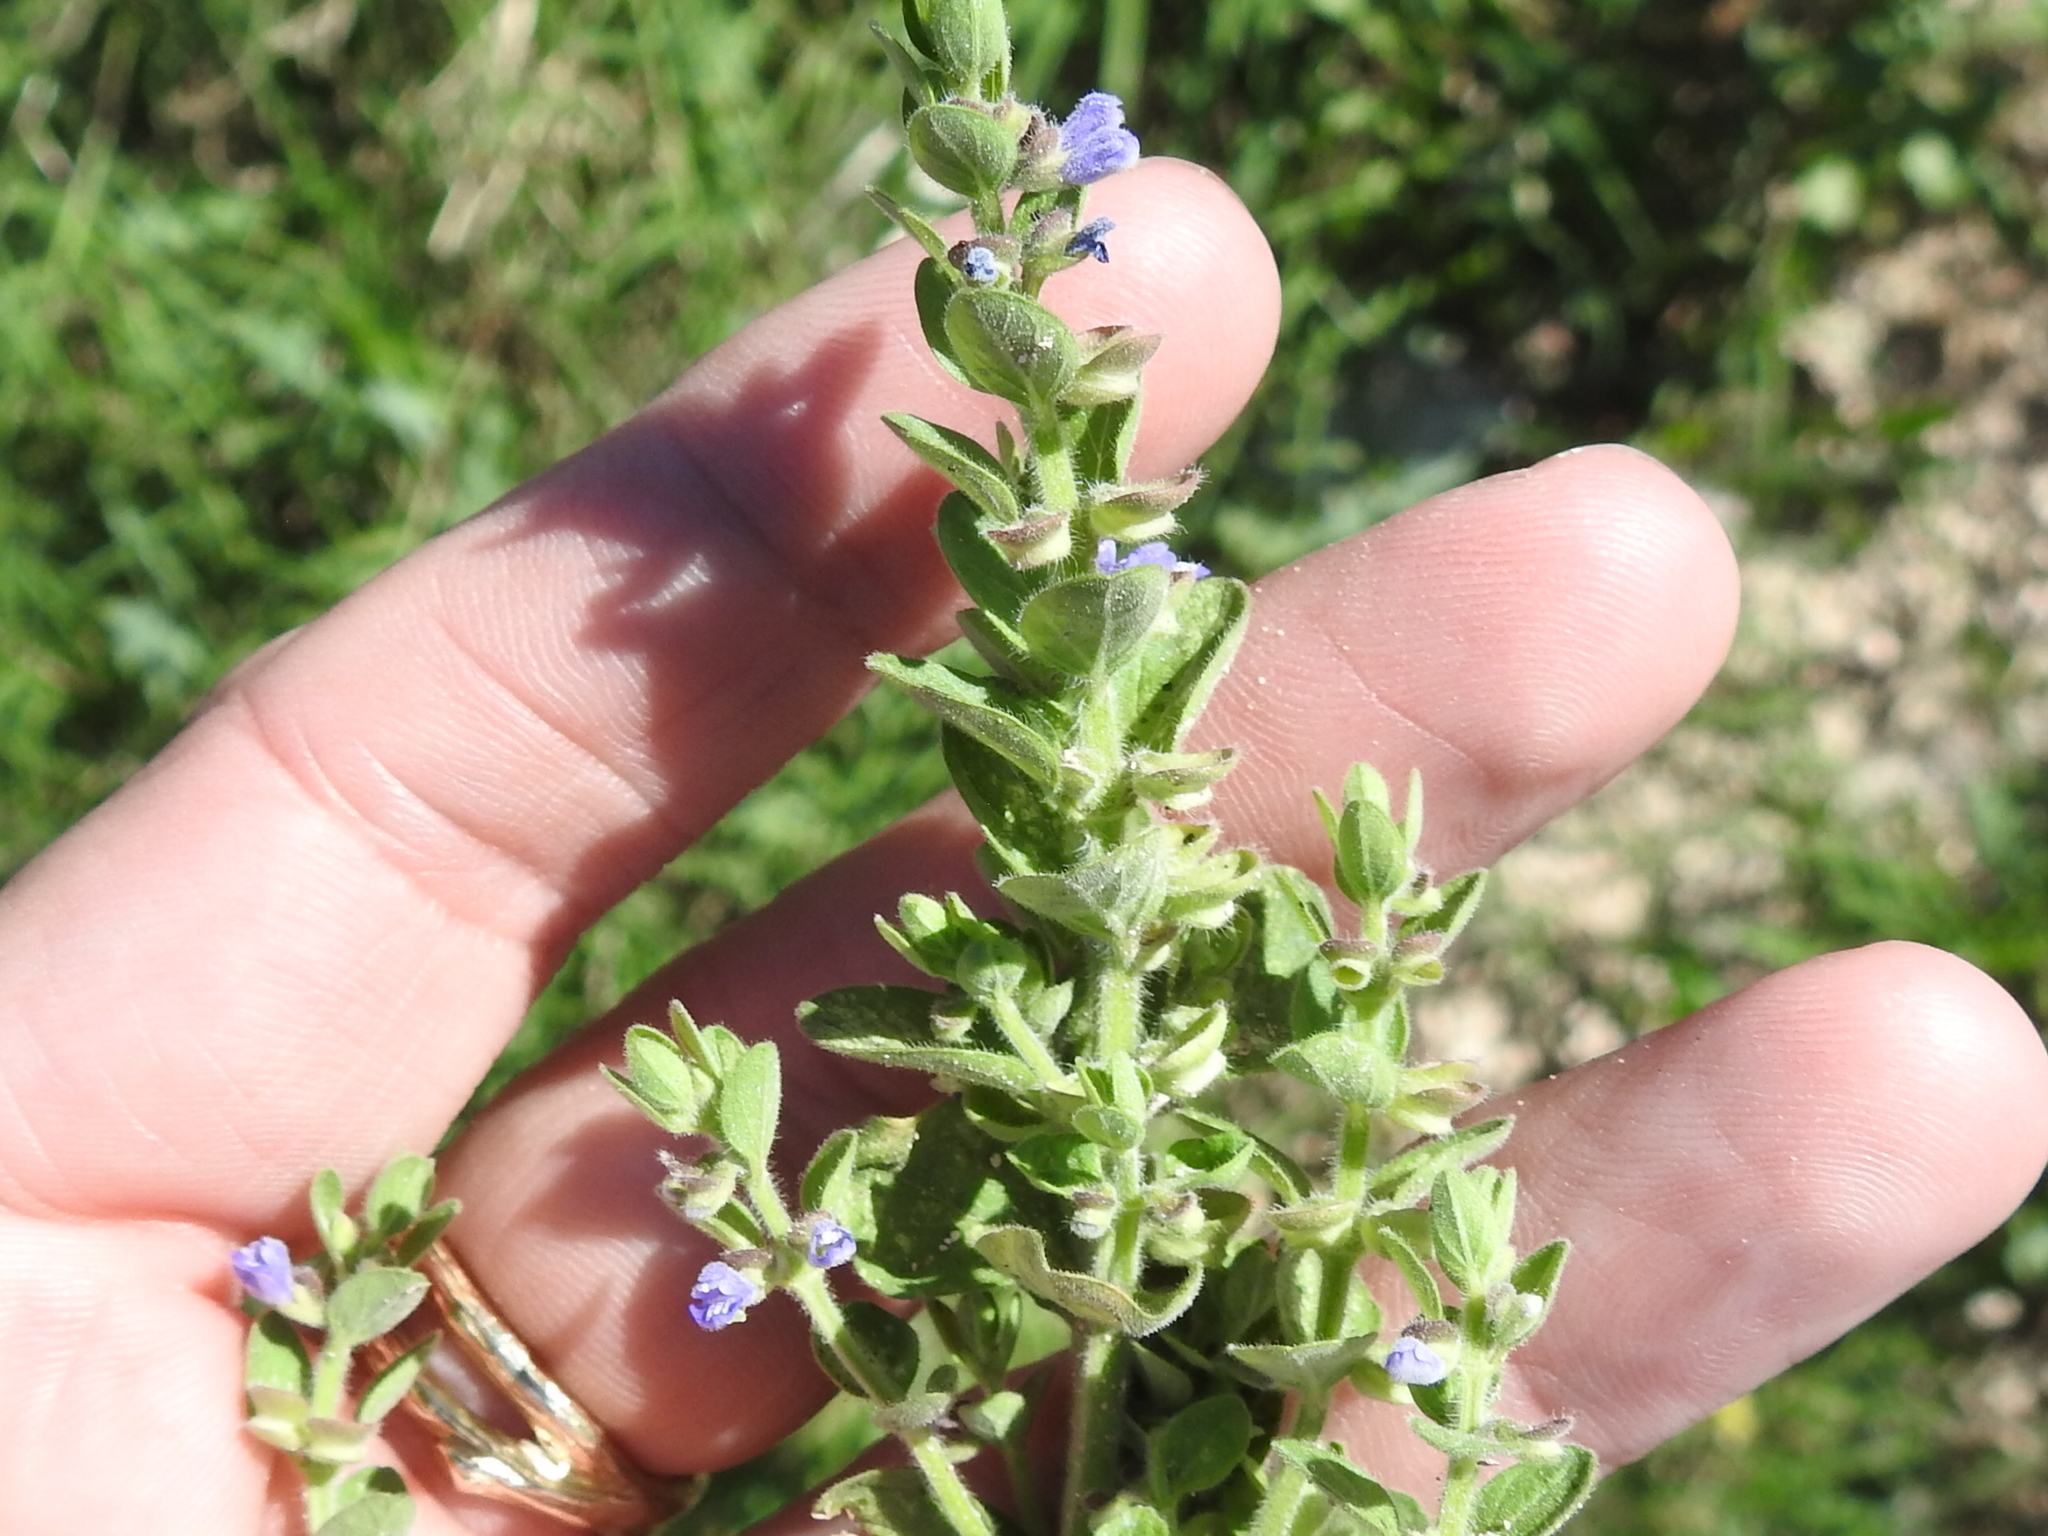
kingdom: Plantae
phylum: Tracheophyta
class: Magnoliopsida
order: Lamiales
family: Lamiaceae
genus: Scutellaria
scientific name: Scutellaria drummondii
